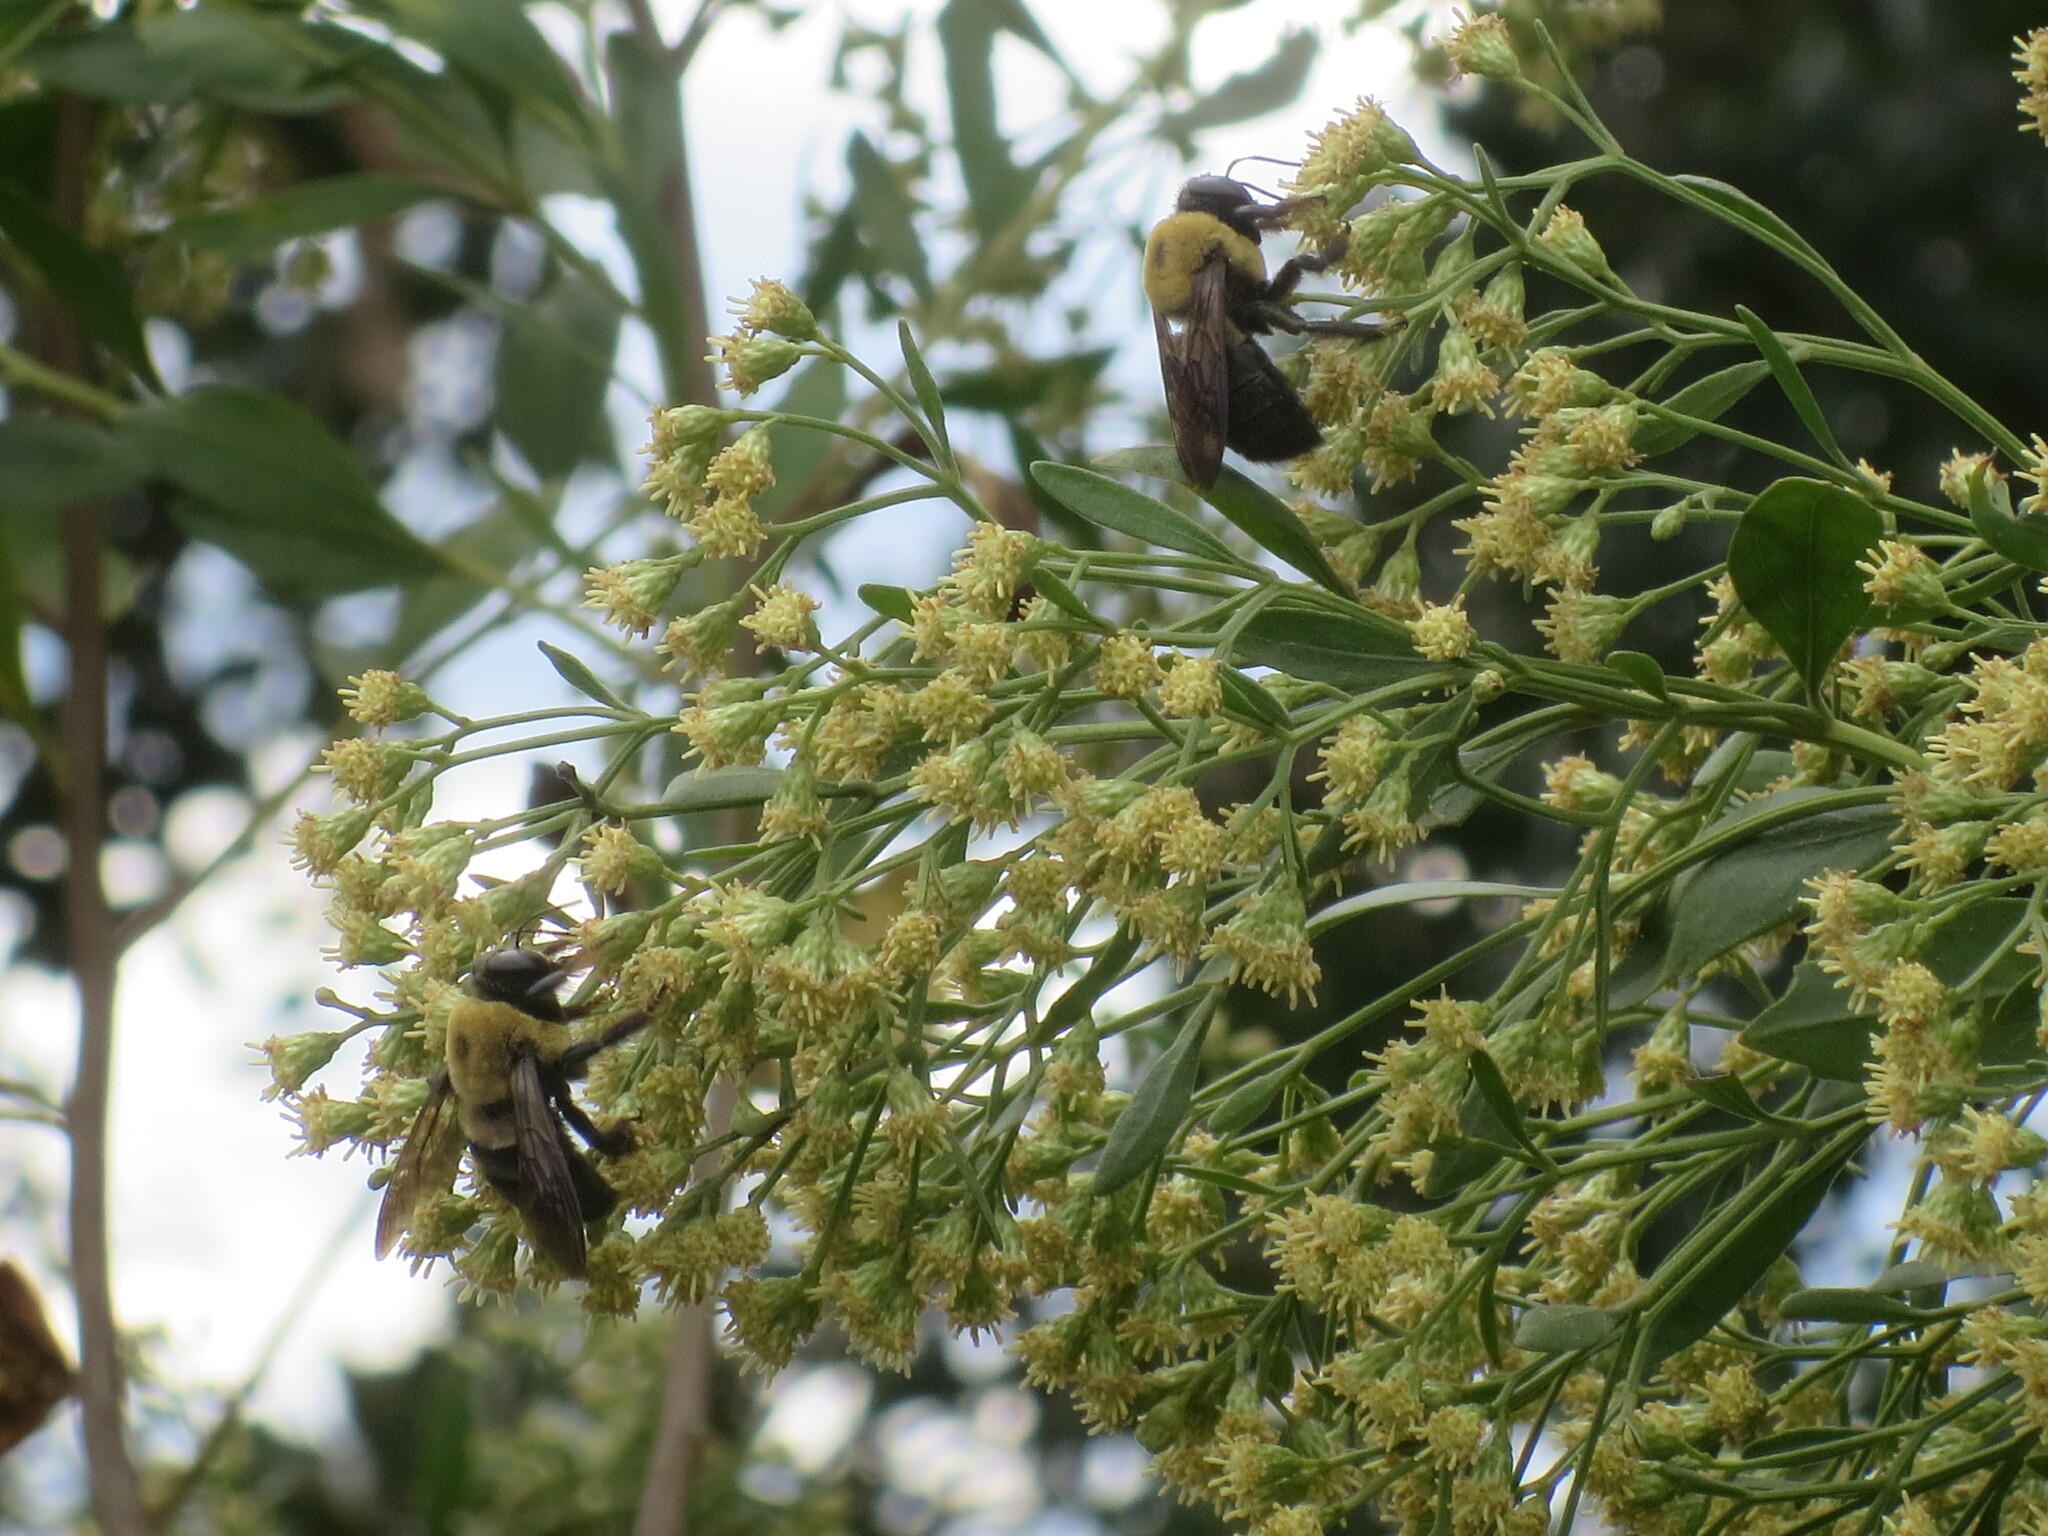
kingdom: Animalia
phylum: Arthropoda
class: Insecta
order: Hymenoptera
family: Apidae
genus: Xylocopa
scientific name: Xylocopa virginica
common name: Carpenter bee
